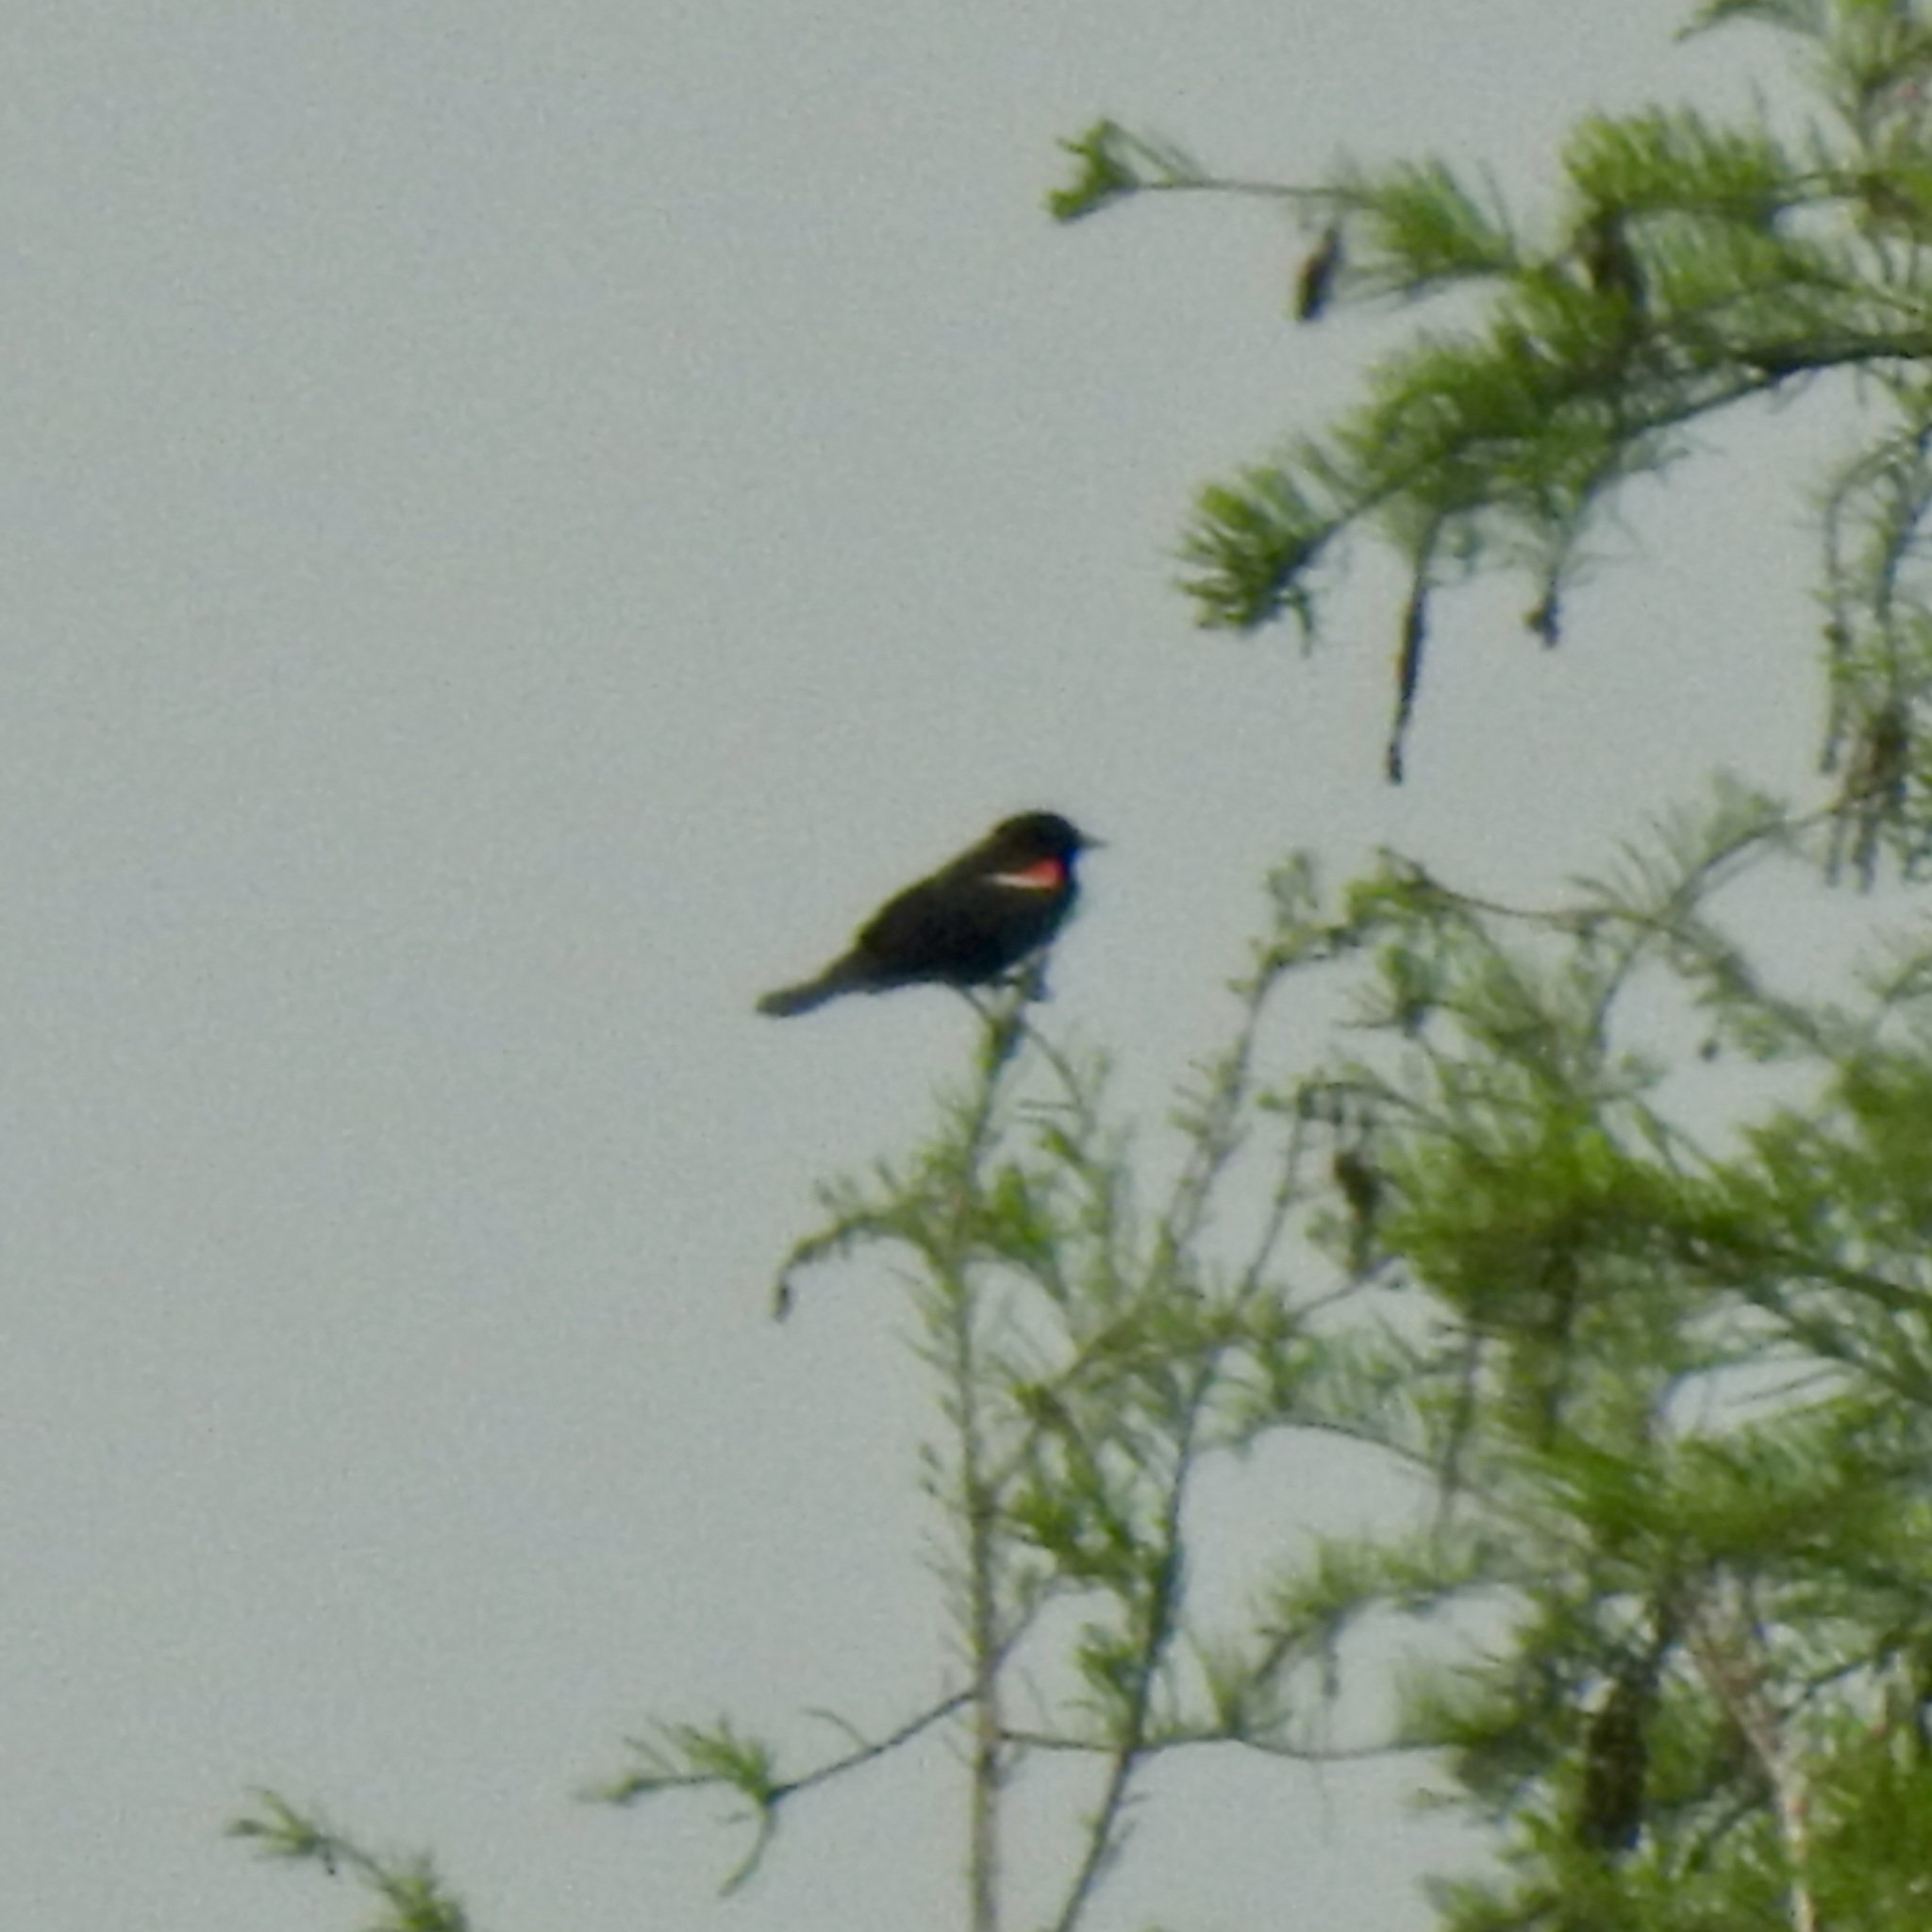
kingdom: Animalia
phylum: Chordata
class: Aves
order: Passeriformes
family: Icteridae
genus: Agelaius
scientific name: Agelaius phoeniceus
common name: Red-winged blackbird
